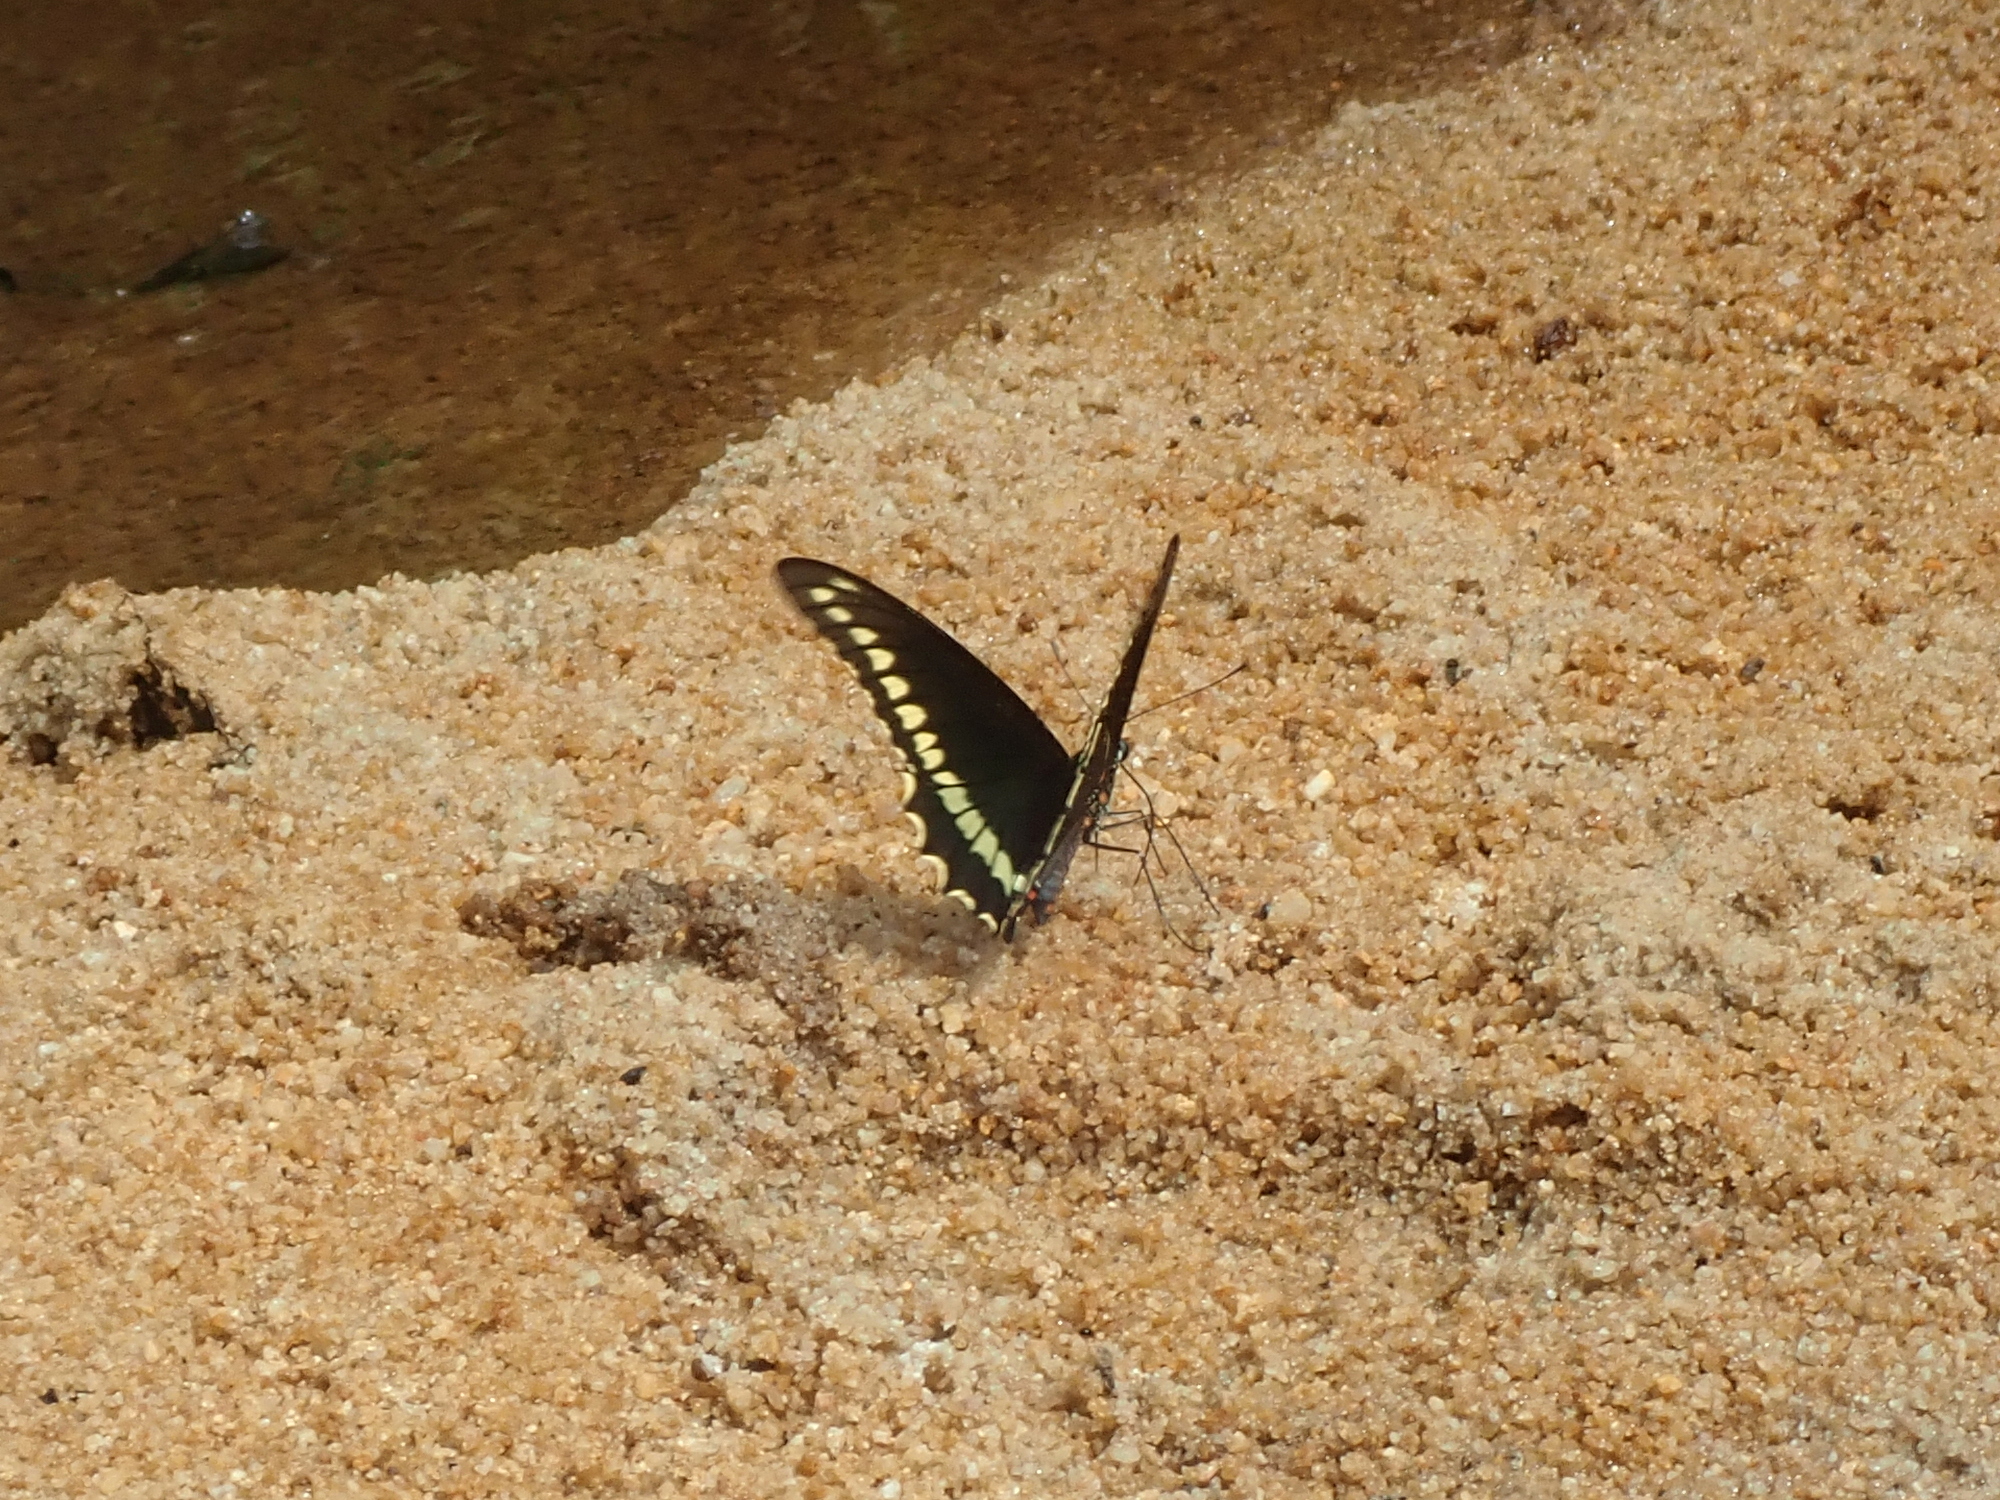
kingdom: Animalia
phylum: Arthropoda
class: Insecta
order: Lepidoptera
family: Papilionidae
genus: Battus
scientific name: Battus polydamas
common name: Polydamas swallowtail
